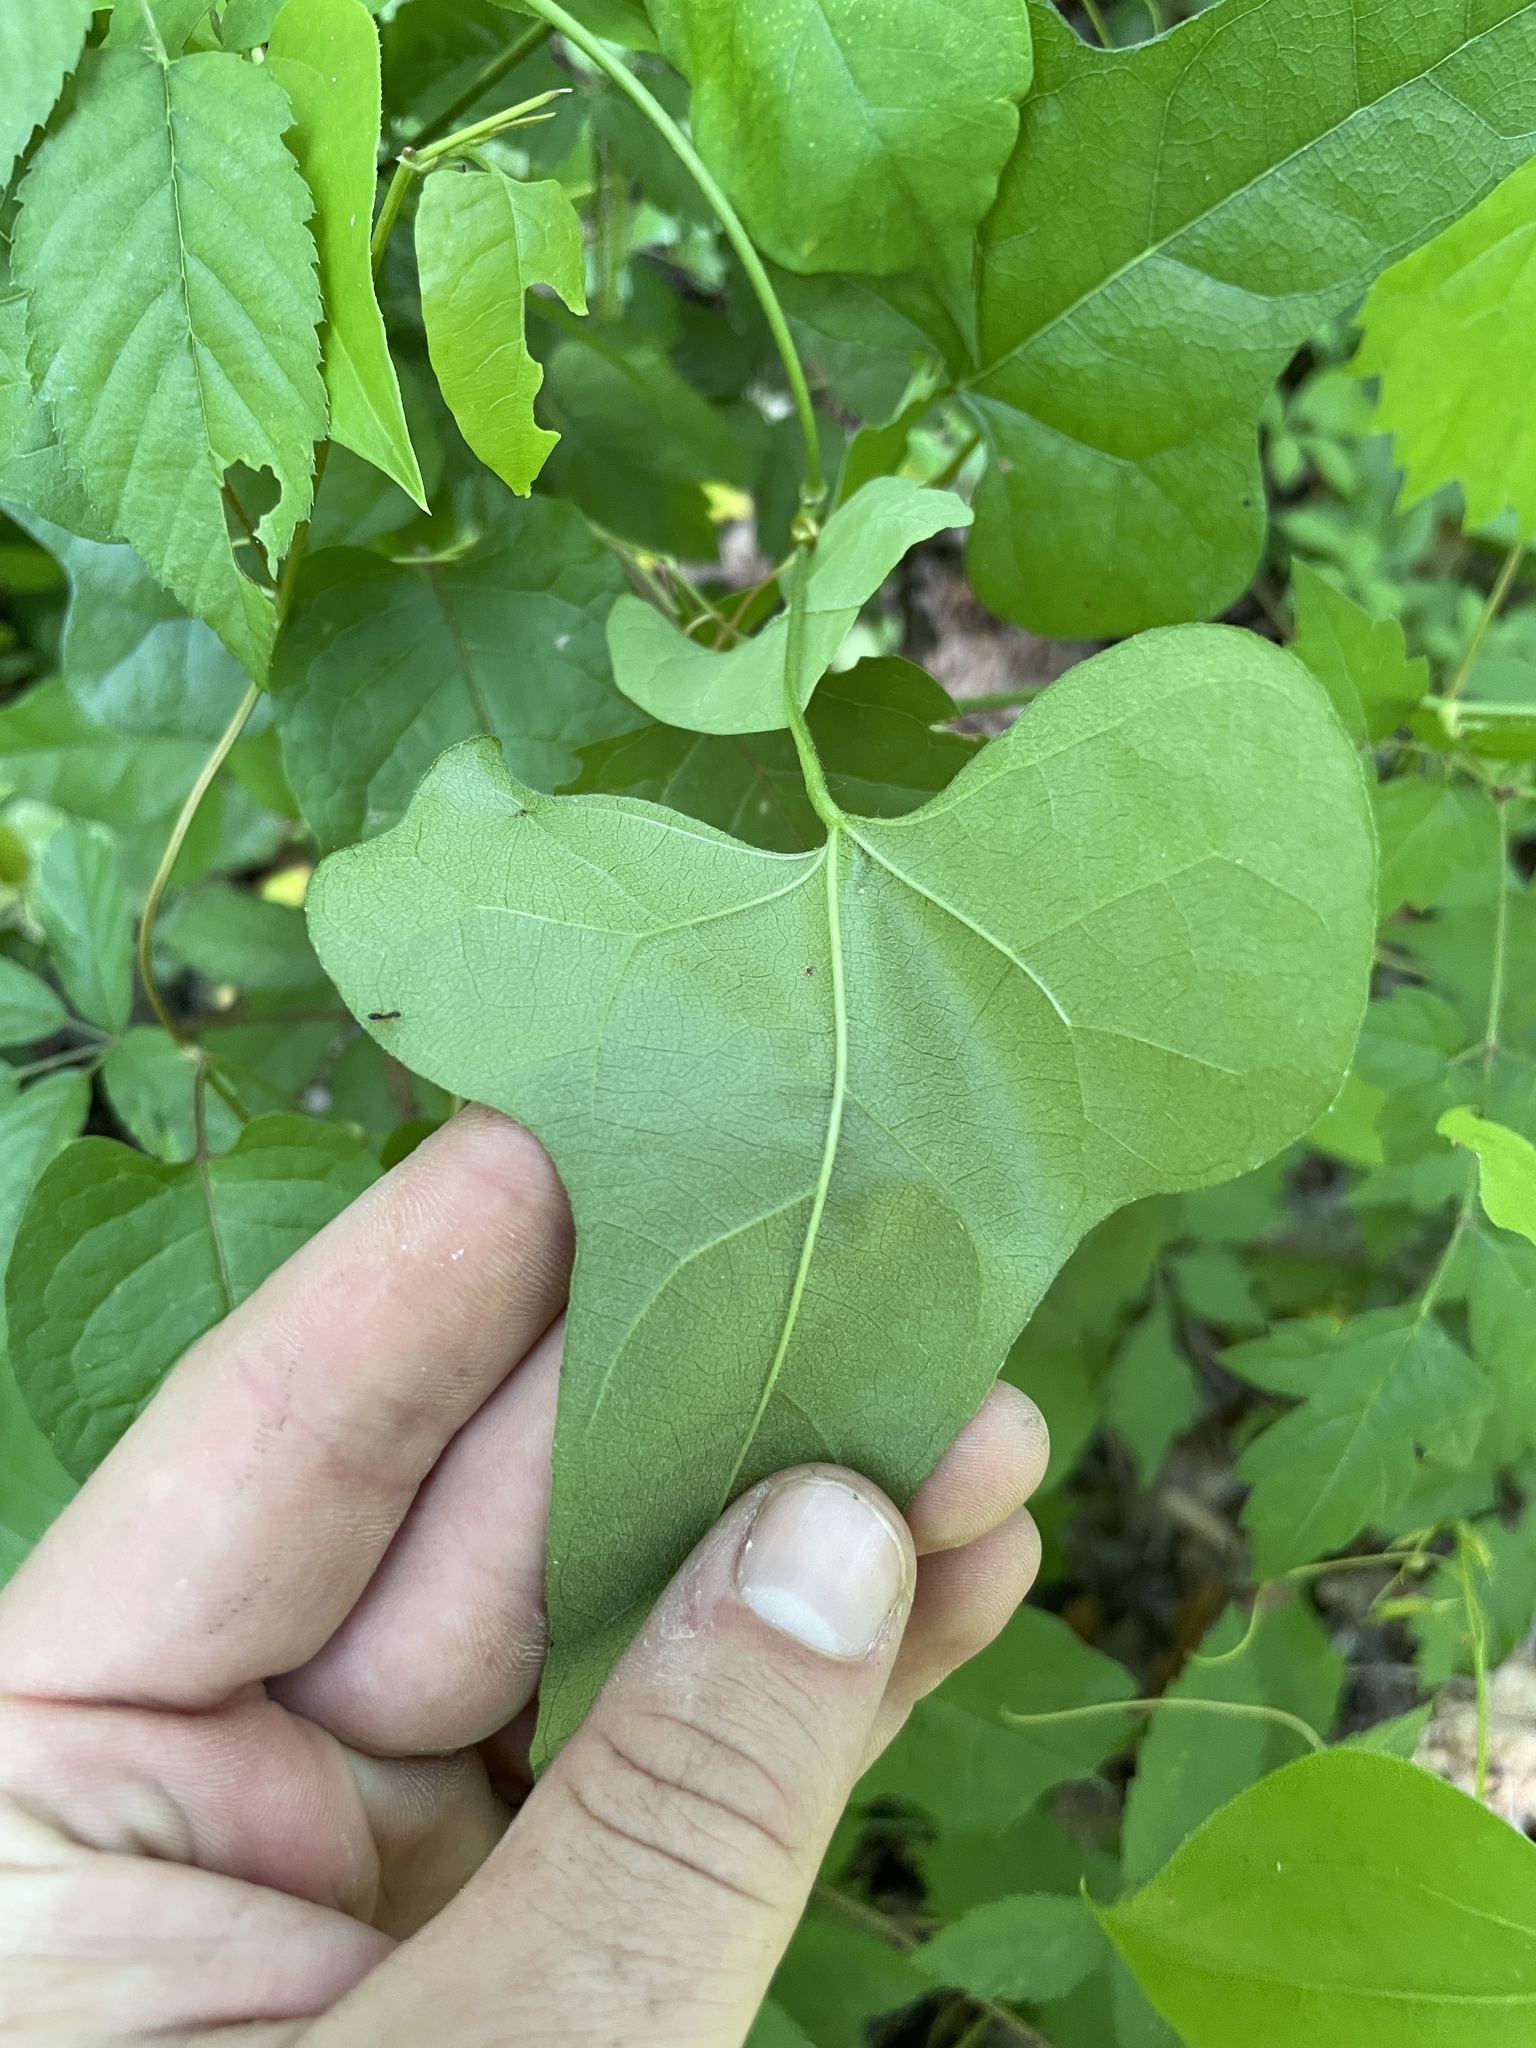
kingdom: Plantae
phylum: Tracheophyta
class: Magnoliopsida
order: Ranunculales
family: Menispermaceae
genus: Cocculus
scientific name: Cocculus carolinus
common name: Carolina moonseed
